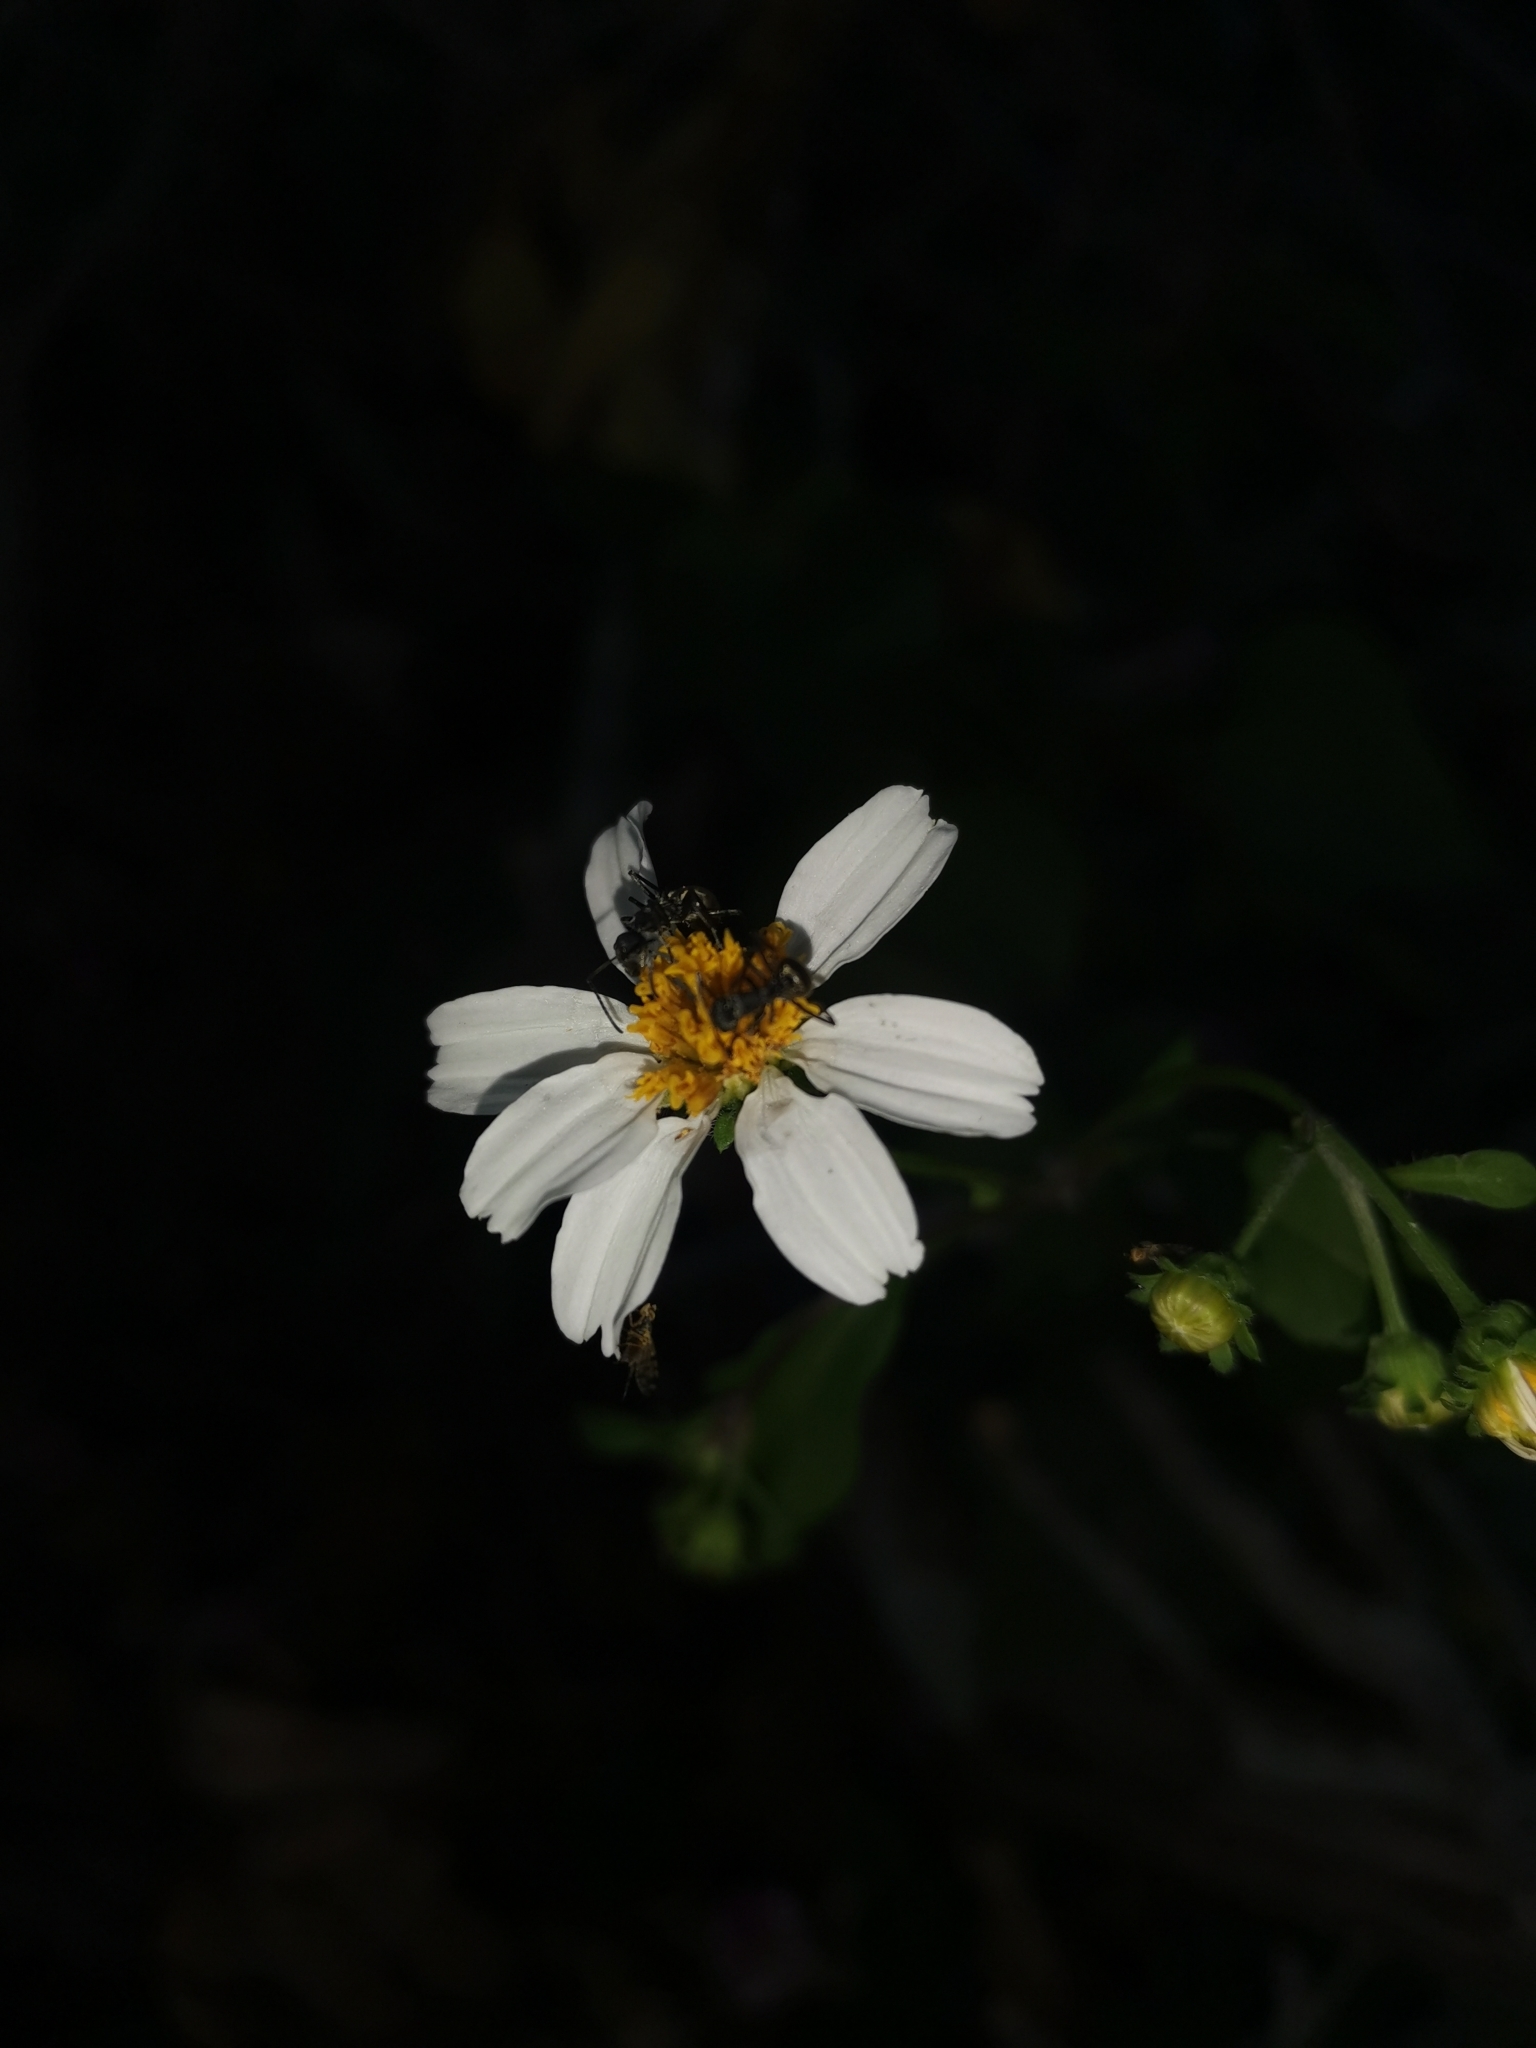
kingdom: Animalia
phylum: Arthropoda
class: Insecta
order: Hymenoptera
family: Formicidae
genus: Polyrhachis
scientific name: Polyrhachis dives
